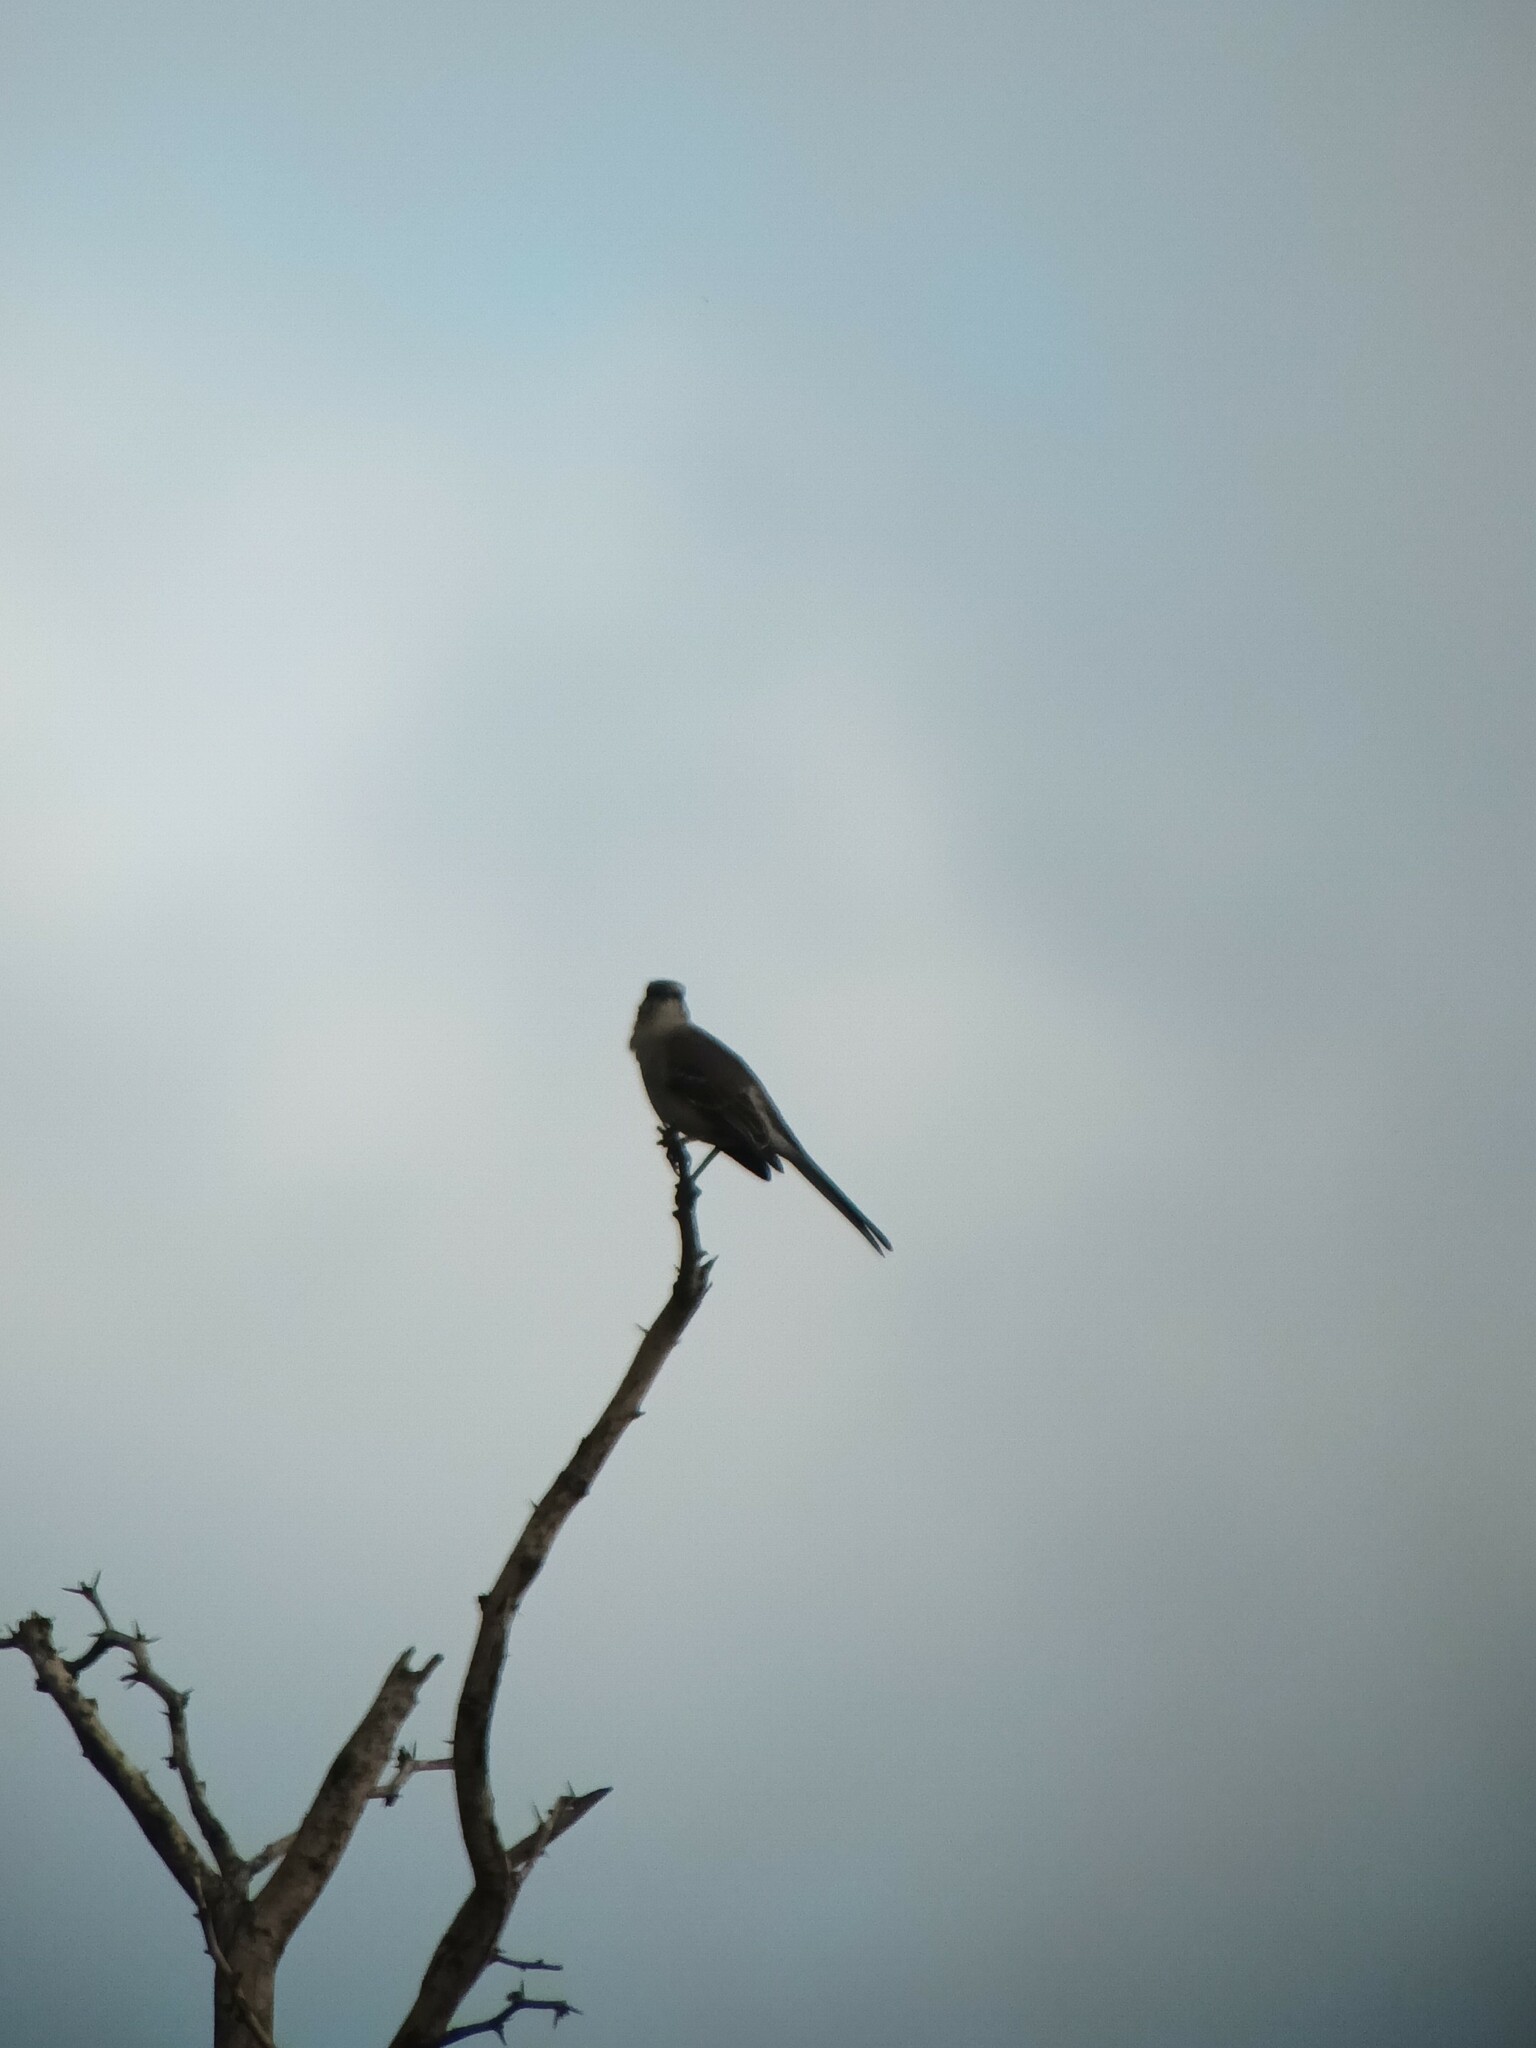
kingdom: Animalia
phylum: Chordata
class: Aves
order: Passeriformes
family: Mimidae
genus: Mimus
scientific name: Mimus polyglottos
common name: Northern mockingbird
